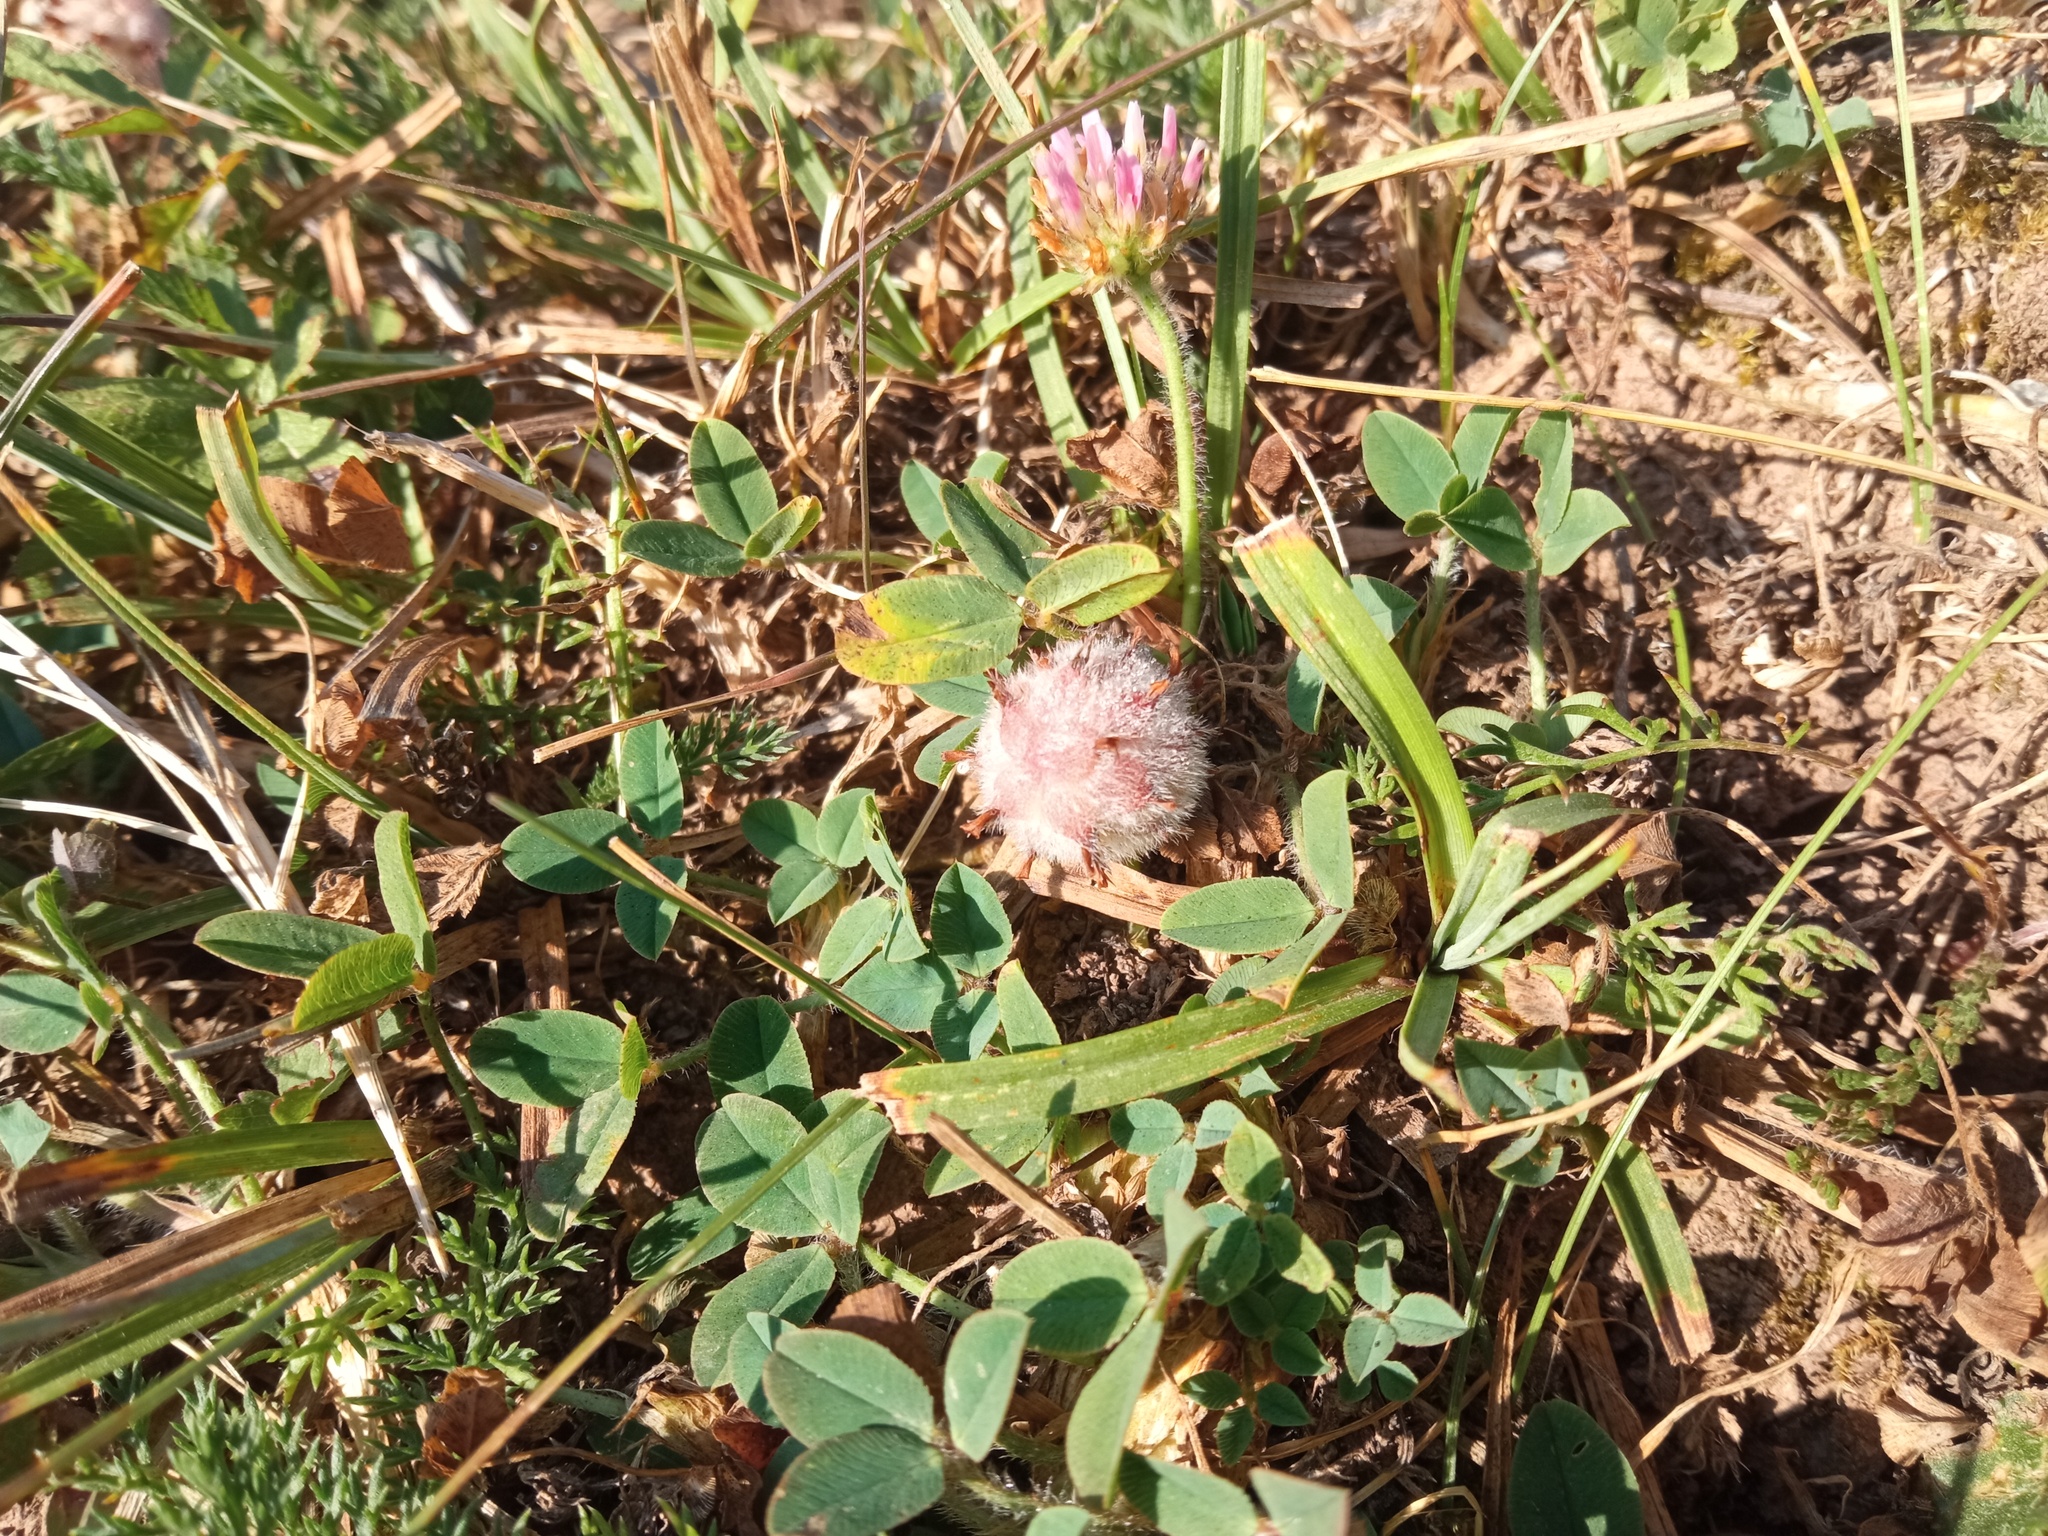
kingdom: Plantae
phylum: Tracheophyta
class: Magnoliopsida
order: Fabales
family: Fabaceae
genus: Trifolium
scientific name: Trifolium fragiferum
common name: Strawberry clover
